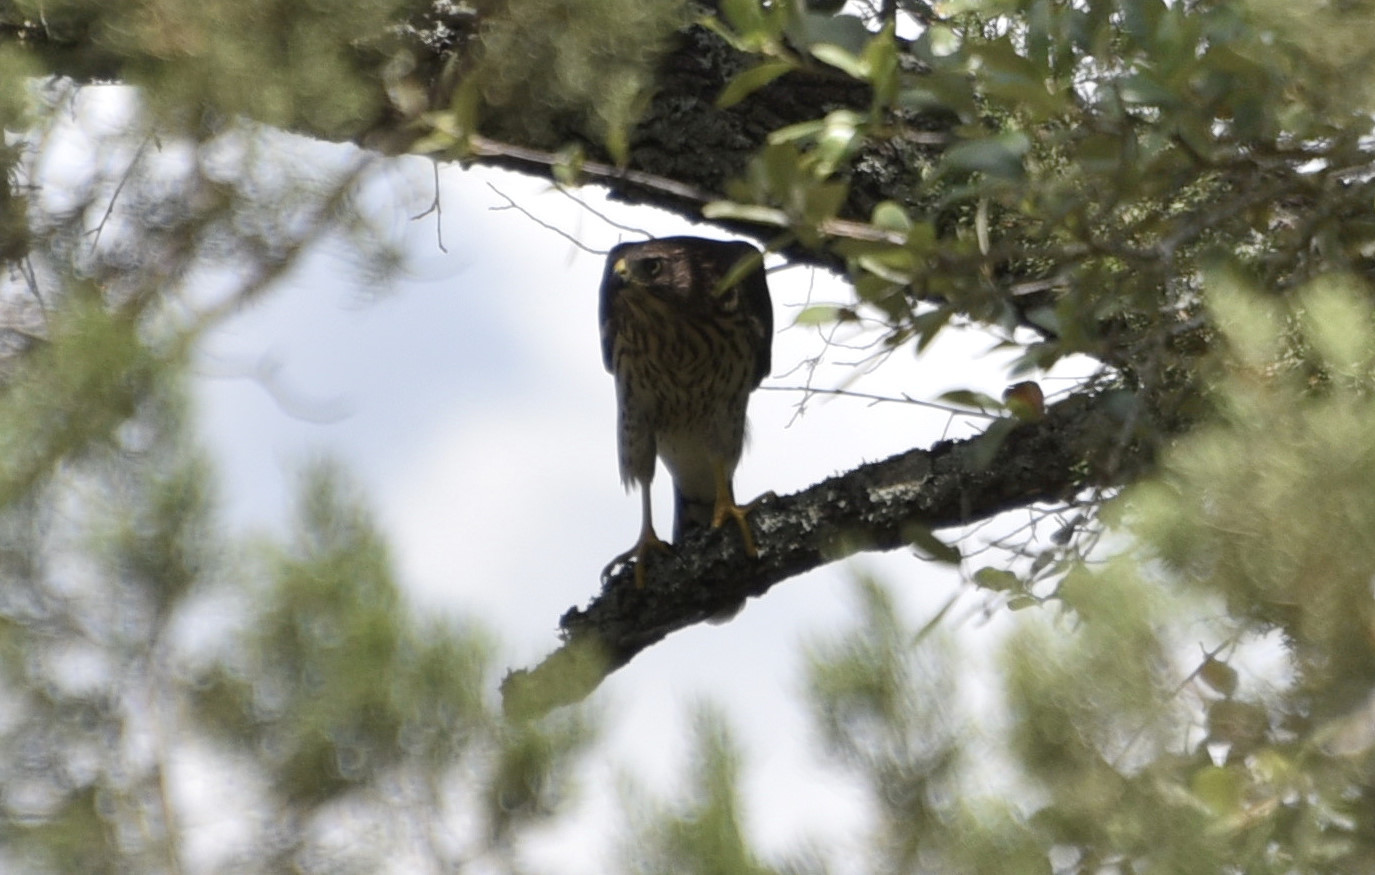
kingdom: Animalia
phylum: Chordata
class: Aves
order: Accipitriformes
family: Accipitridae
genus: Accipiter
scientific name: Accipiter cooperii
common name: Cooper's hawk
